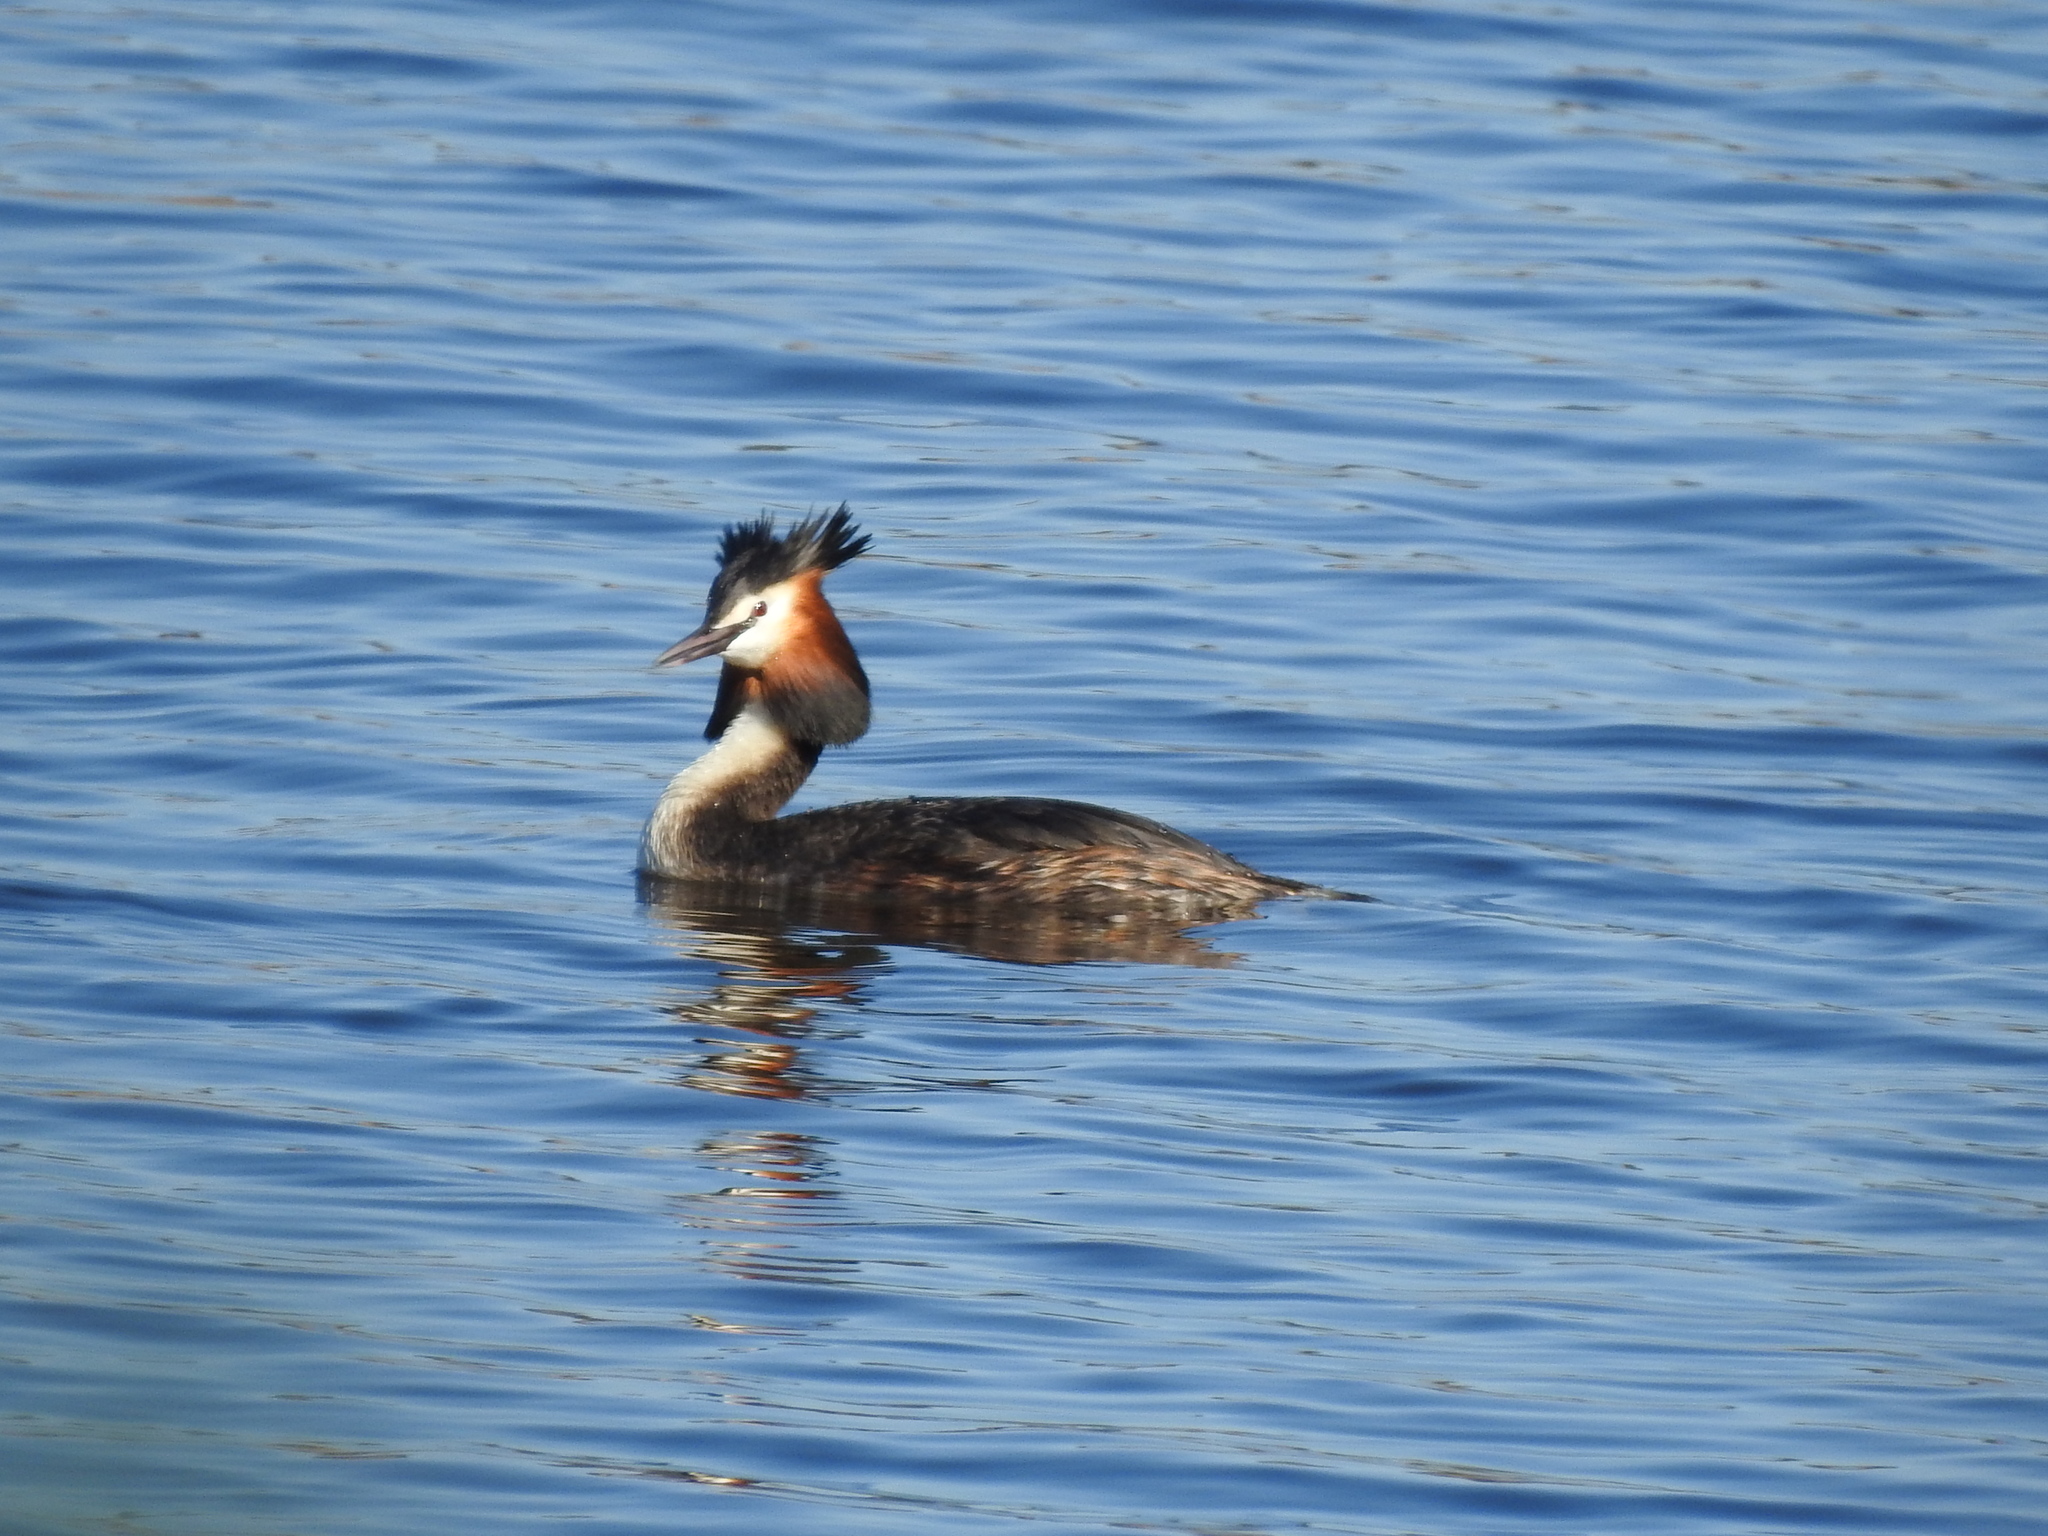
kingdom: Animalia
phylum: Chordata
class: Aves
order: Podicipediformes
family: Podicipedidae
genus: Podiceps
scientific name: Podiceps cristatus
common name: Great crested grebe
